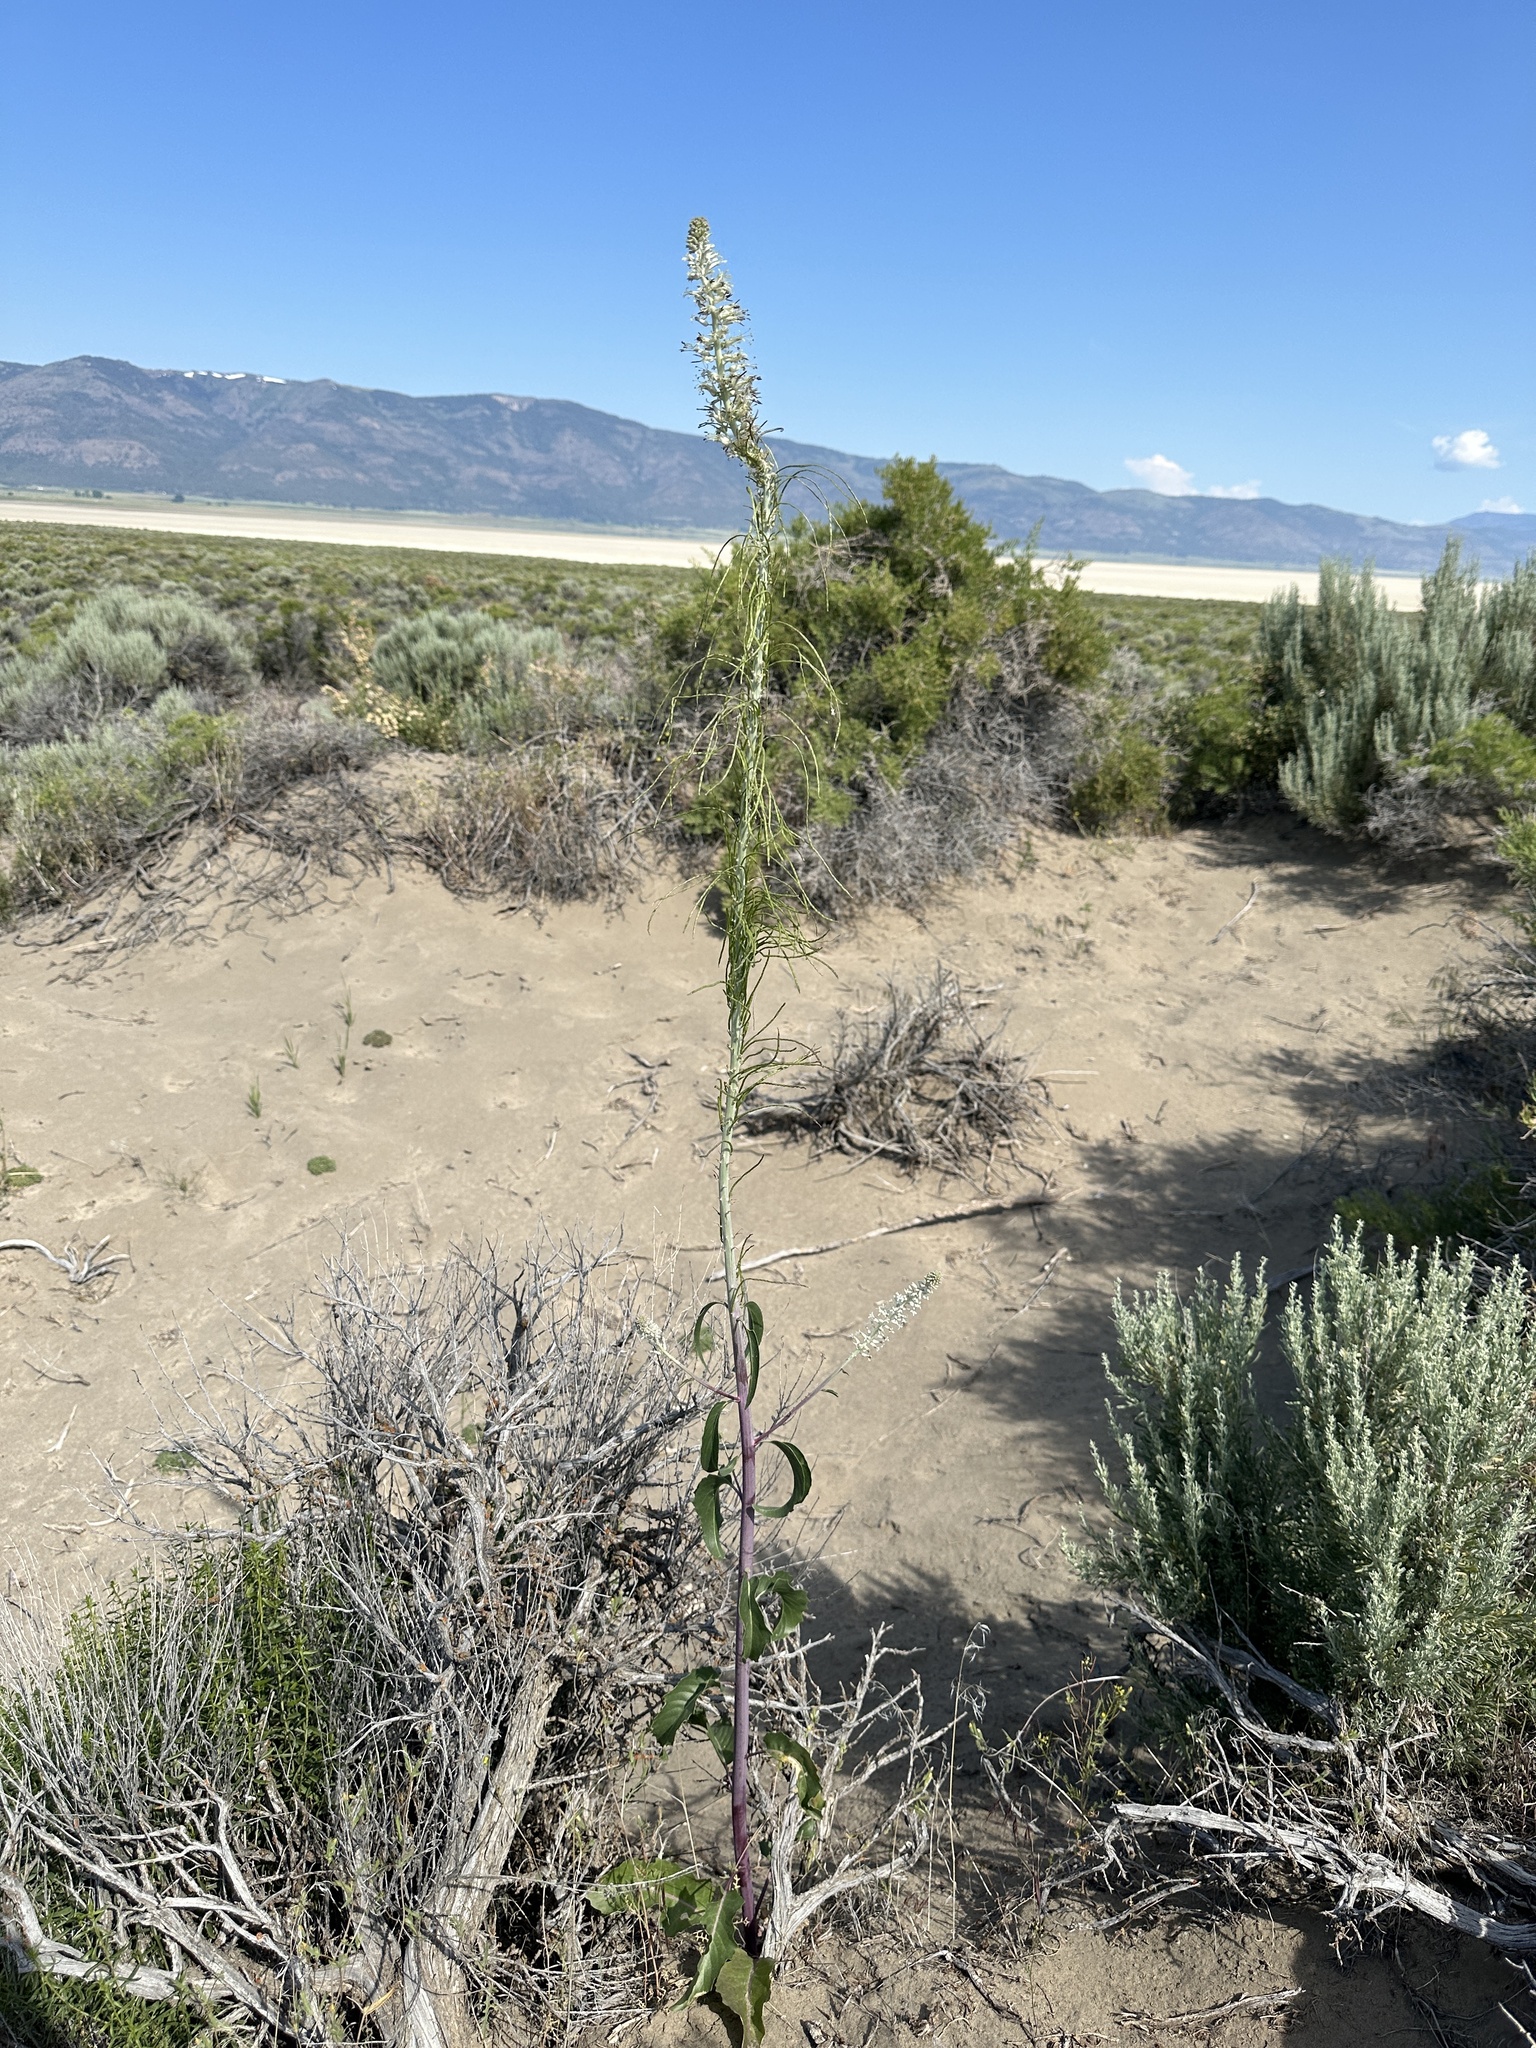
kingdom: Plantae
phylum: Tracheophyta
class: Magnoliopsida
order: Brassicales
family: Brassicaceae
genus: Thelypodium
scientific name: Thelypodium milleflorum
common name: Many-flowered thelypody
